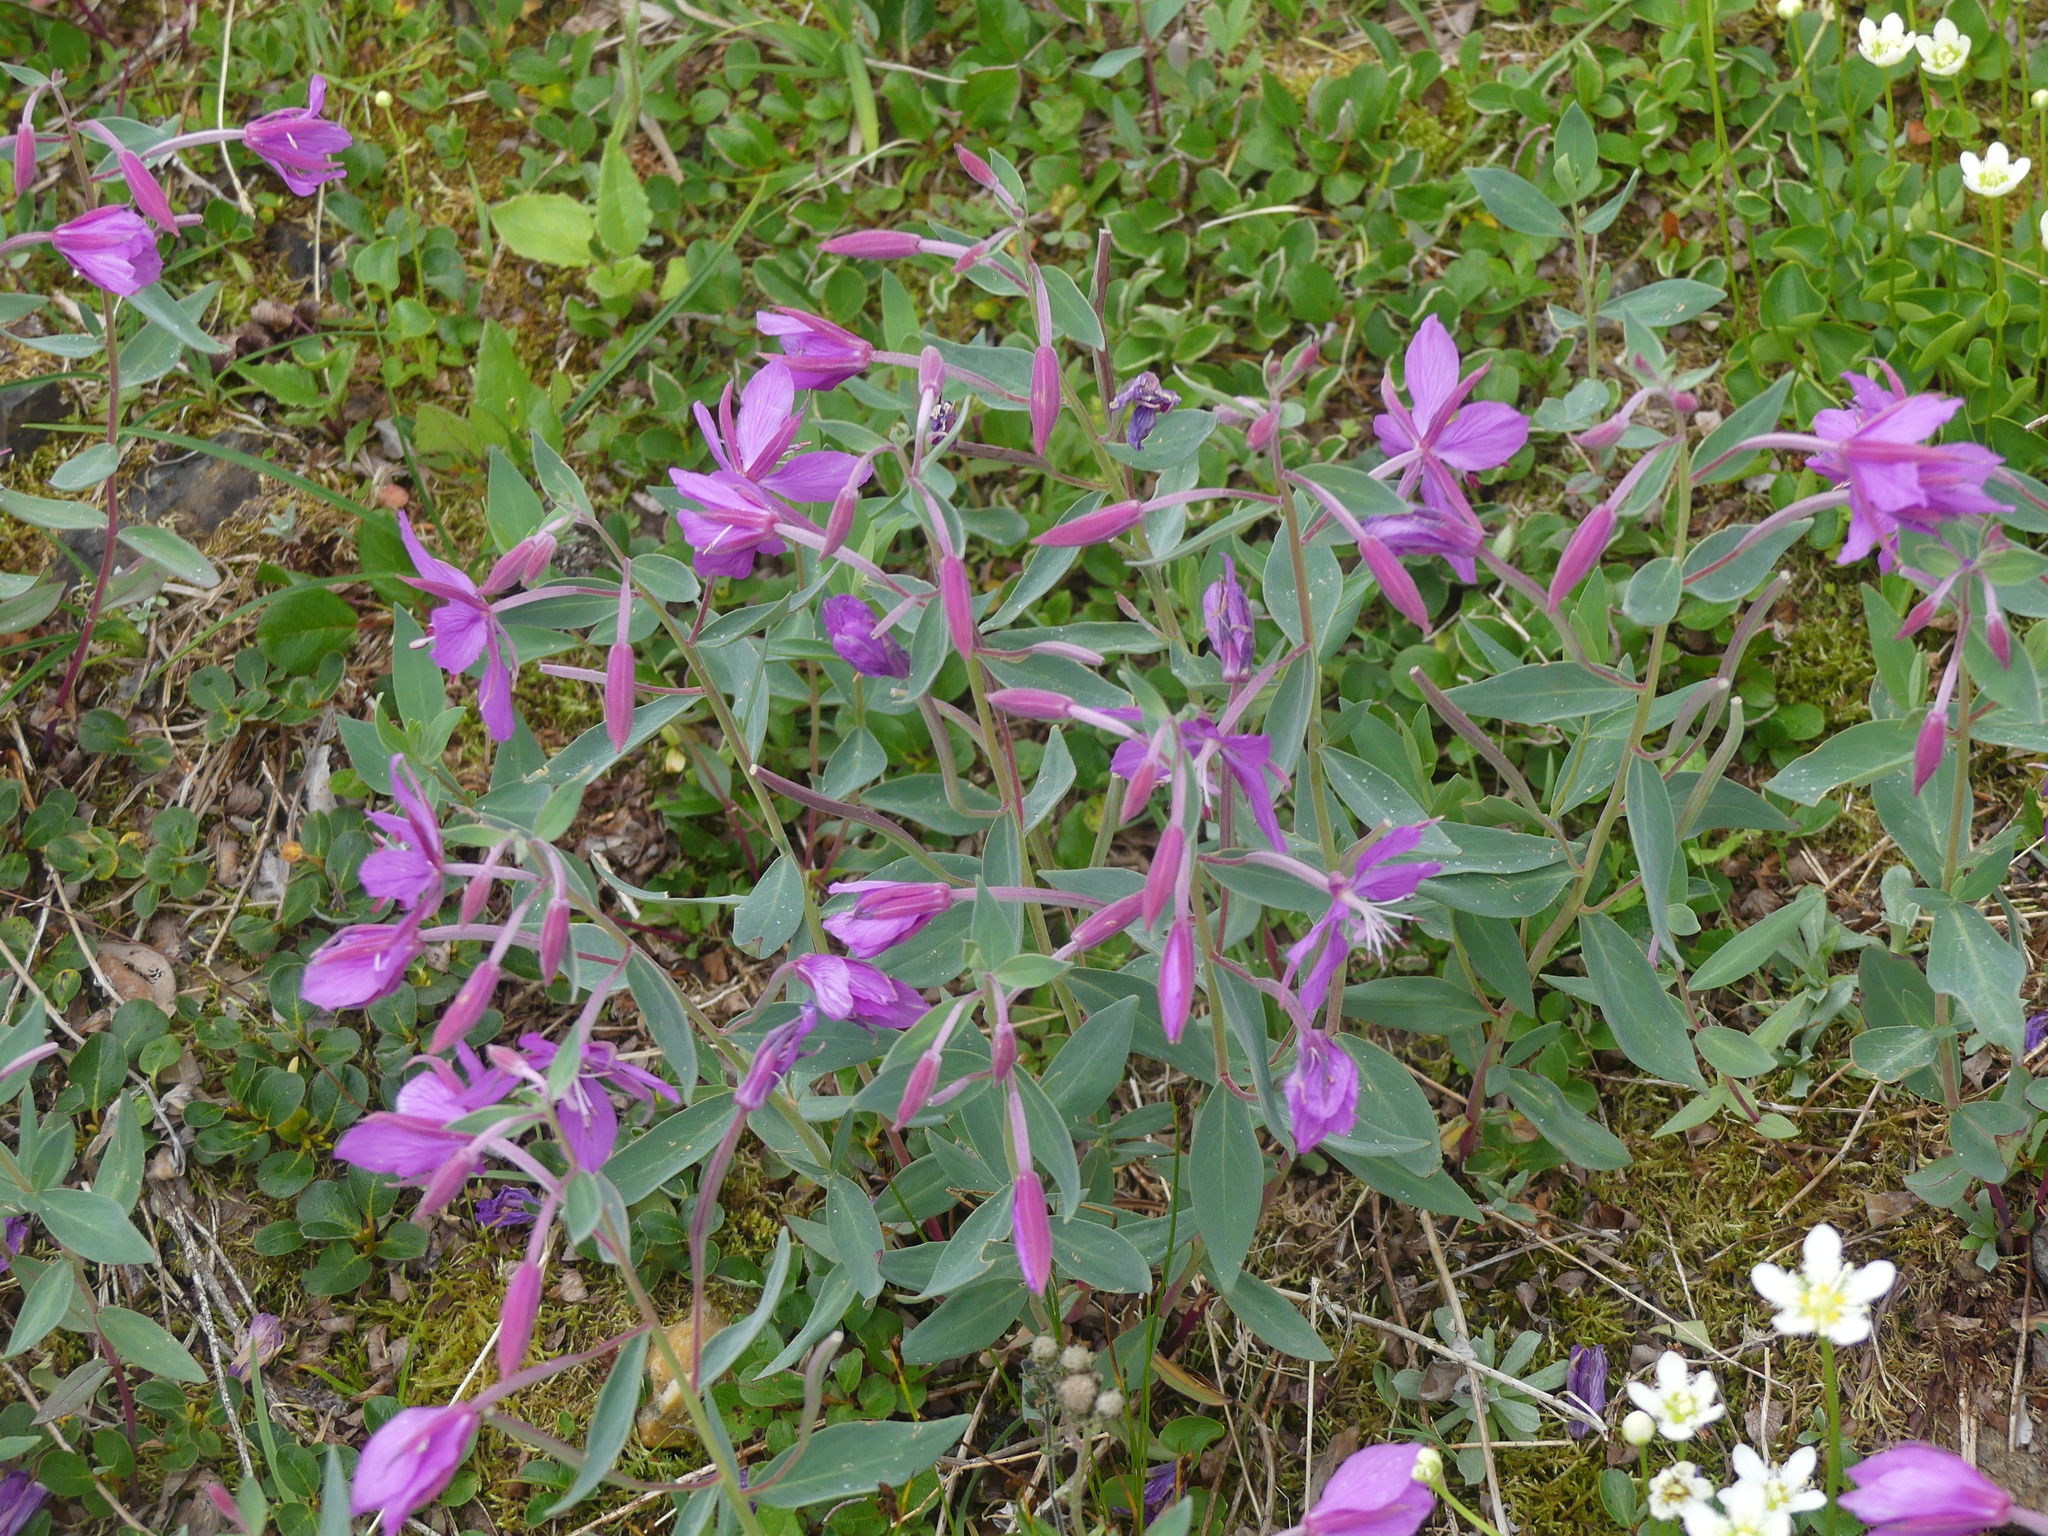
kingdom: Plantae
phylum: Tracheophyta
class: Magnoliopsida
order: Myrtales
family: Onagraceae
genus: Chamaenerion
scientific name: Chamaenerion latifolium
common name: Dwarf fireweed
